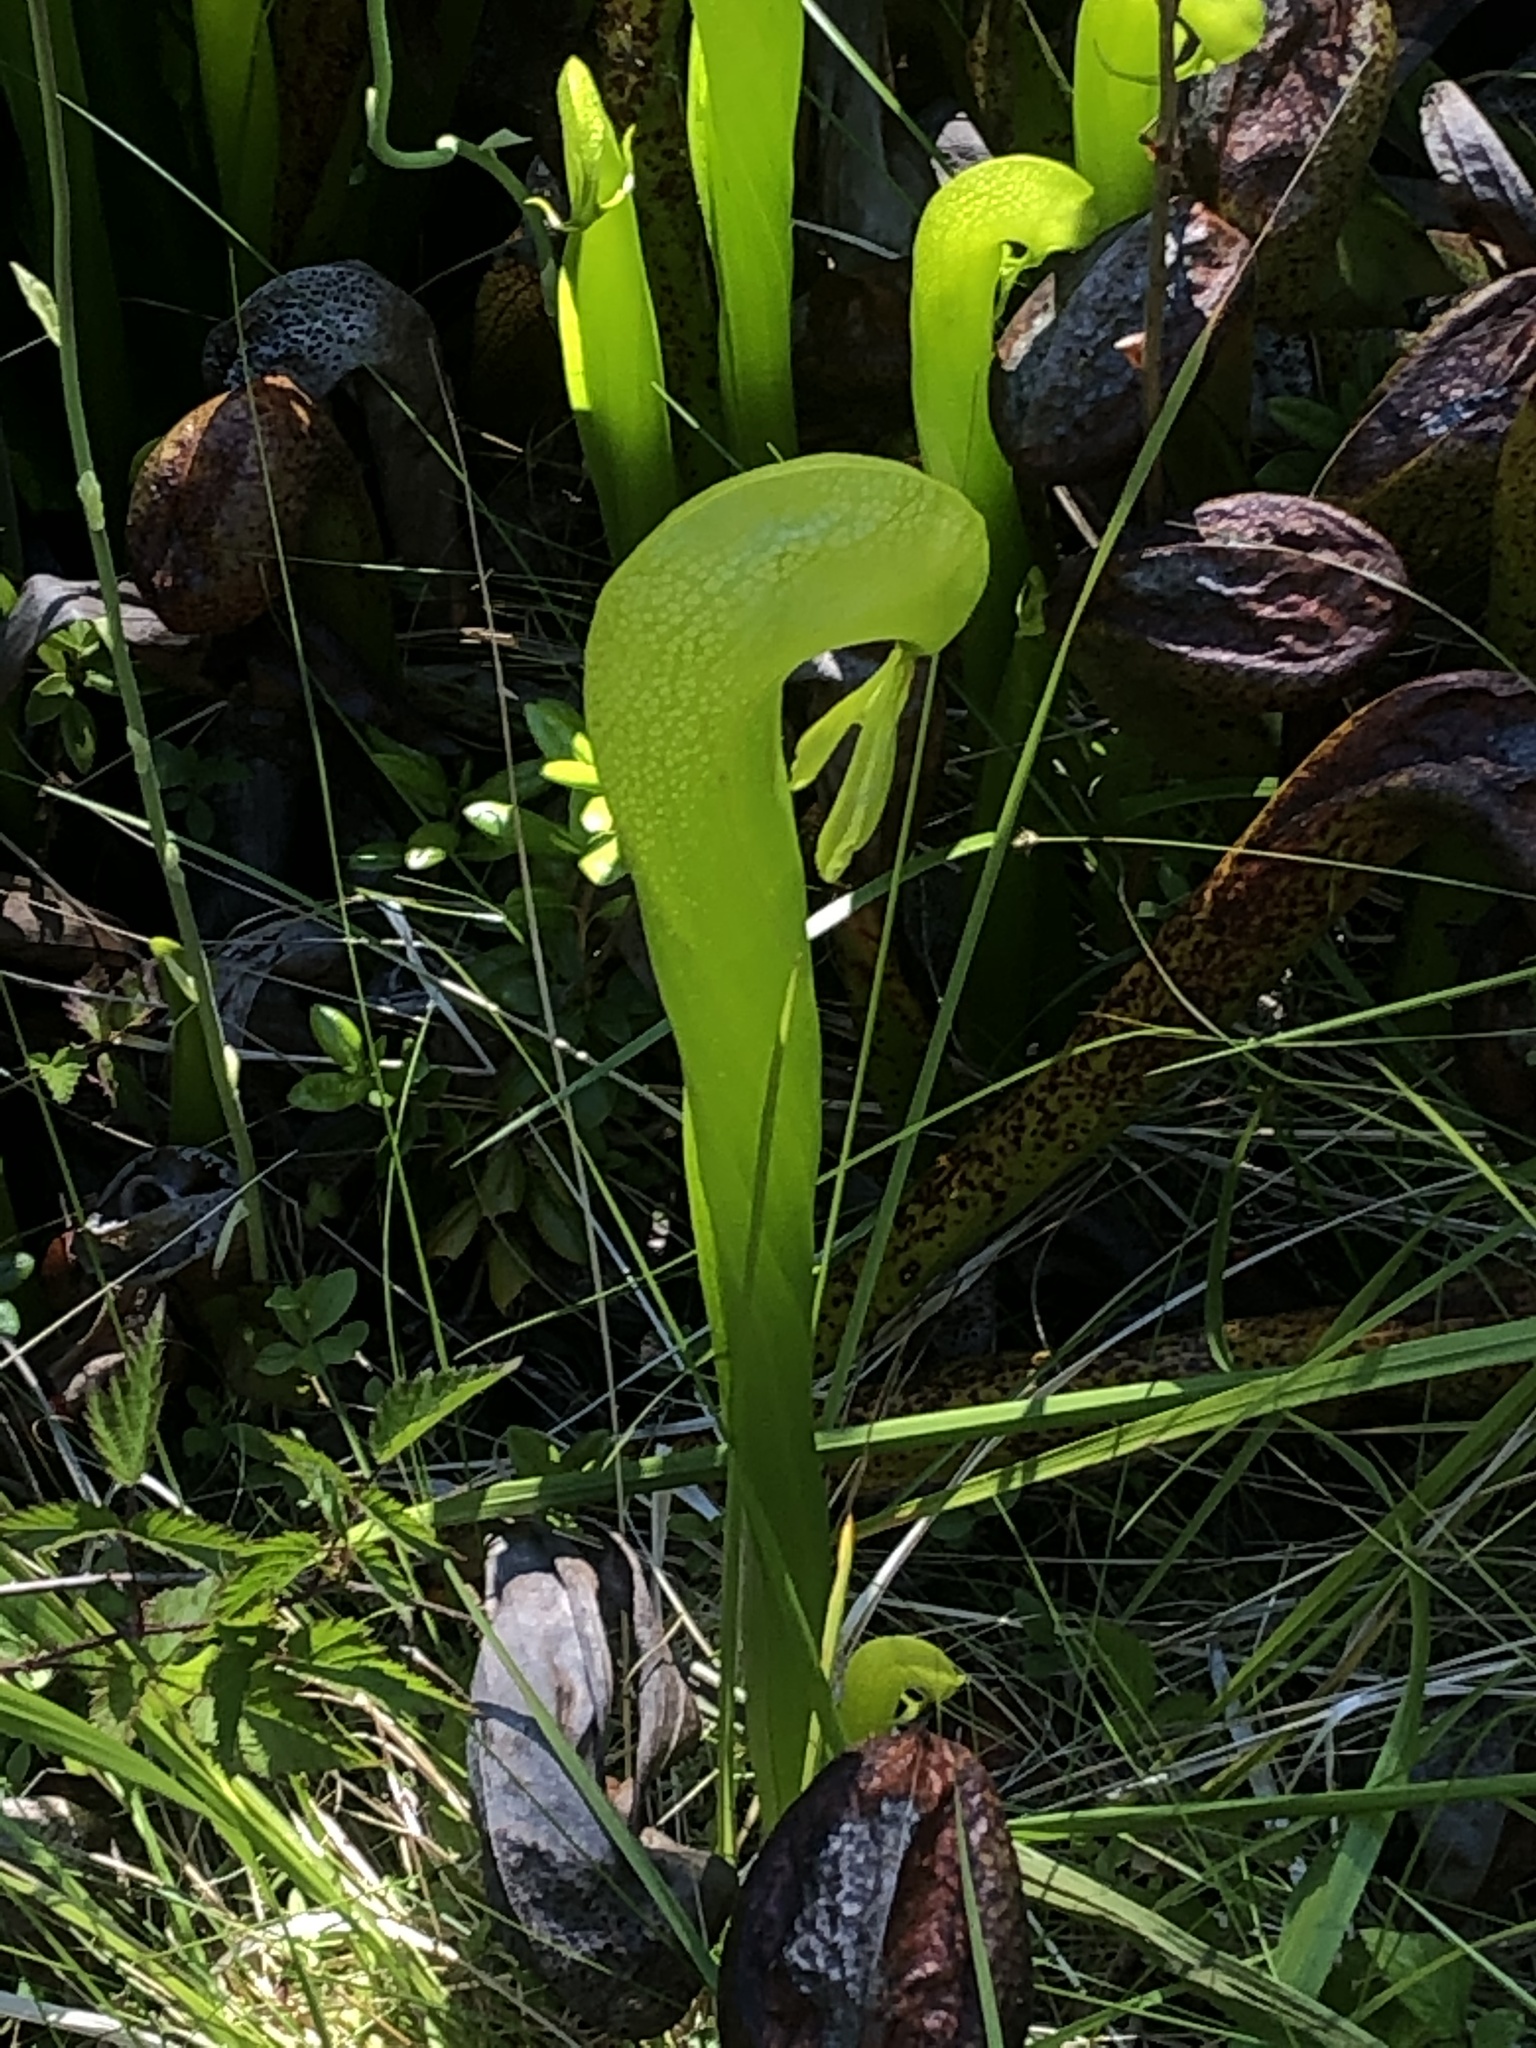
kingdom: Plantae
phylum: Tracheophyta
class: Magnoliopsida
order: Ericales
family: Sarraceniaceae
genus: Darlingtonia
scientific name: Darlingtonia californica
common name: California pitcher plant
